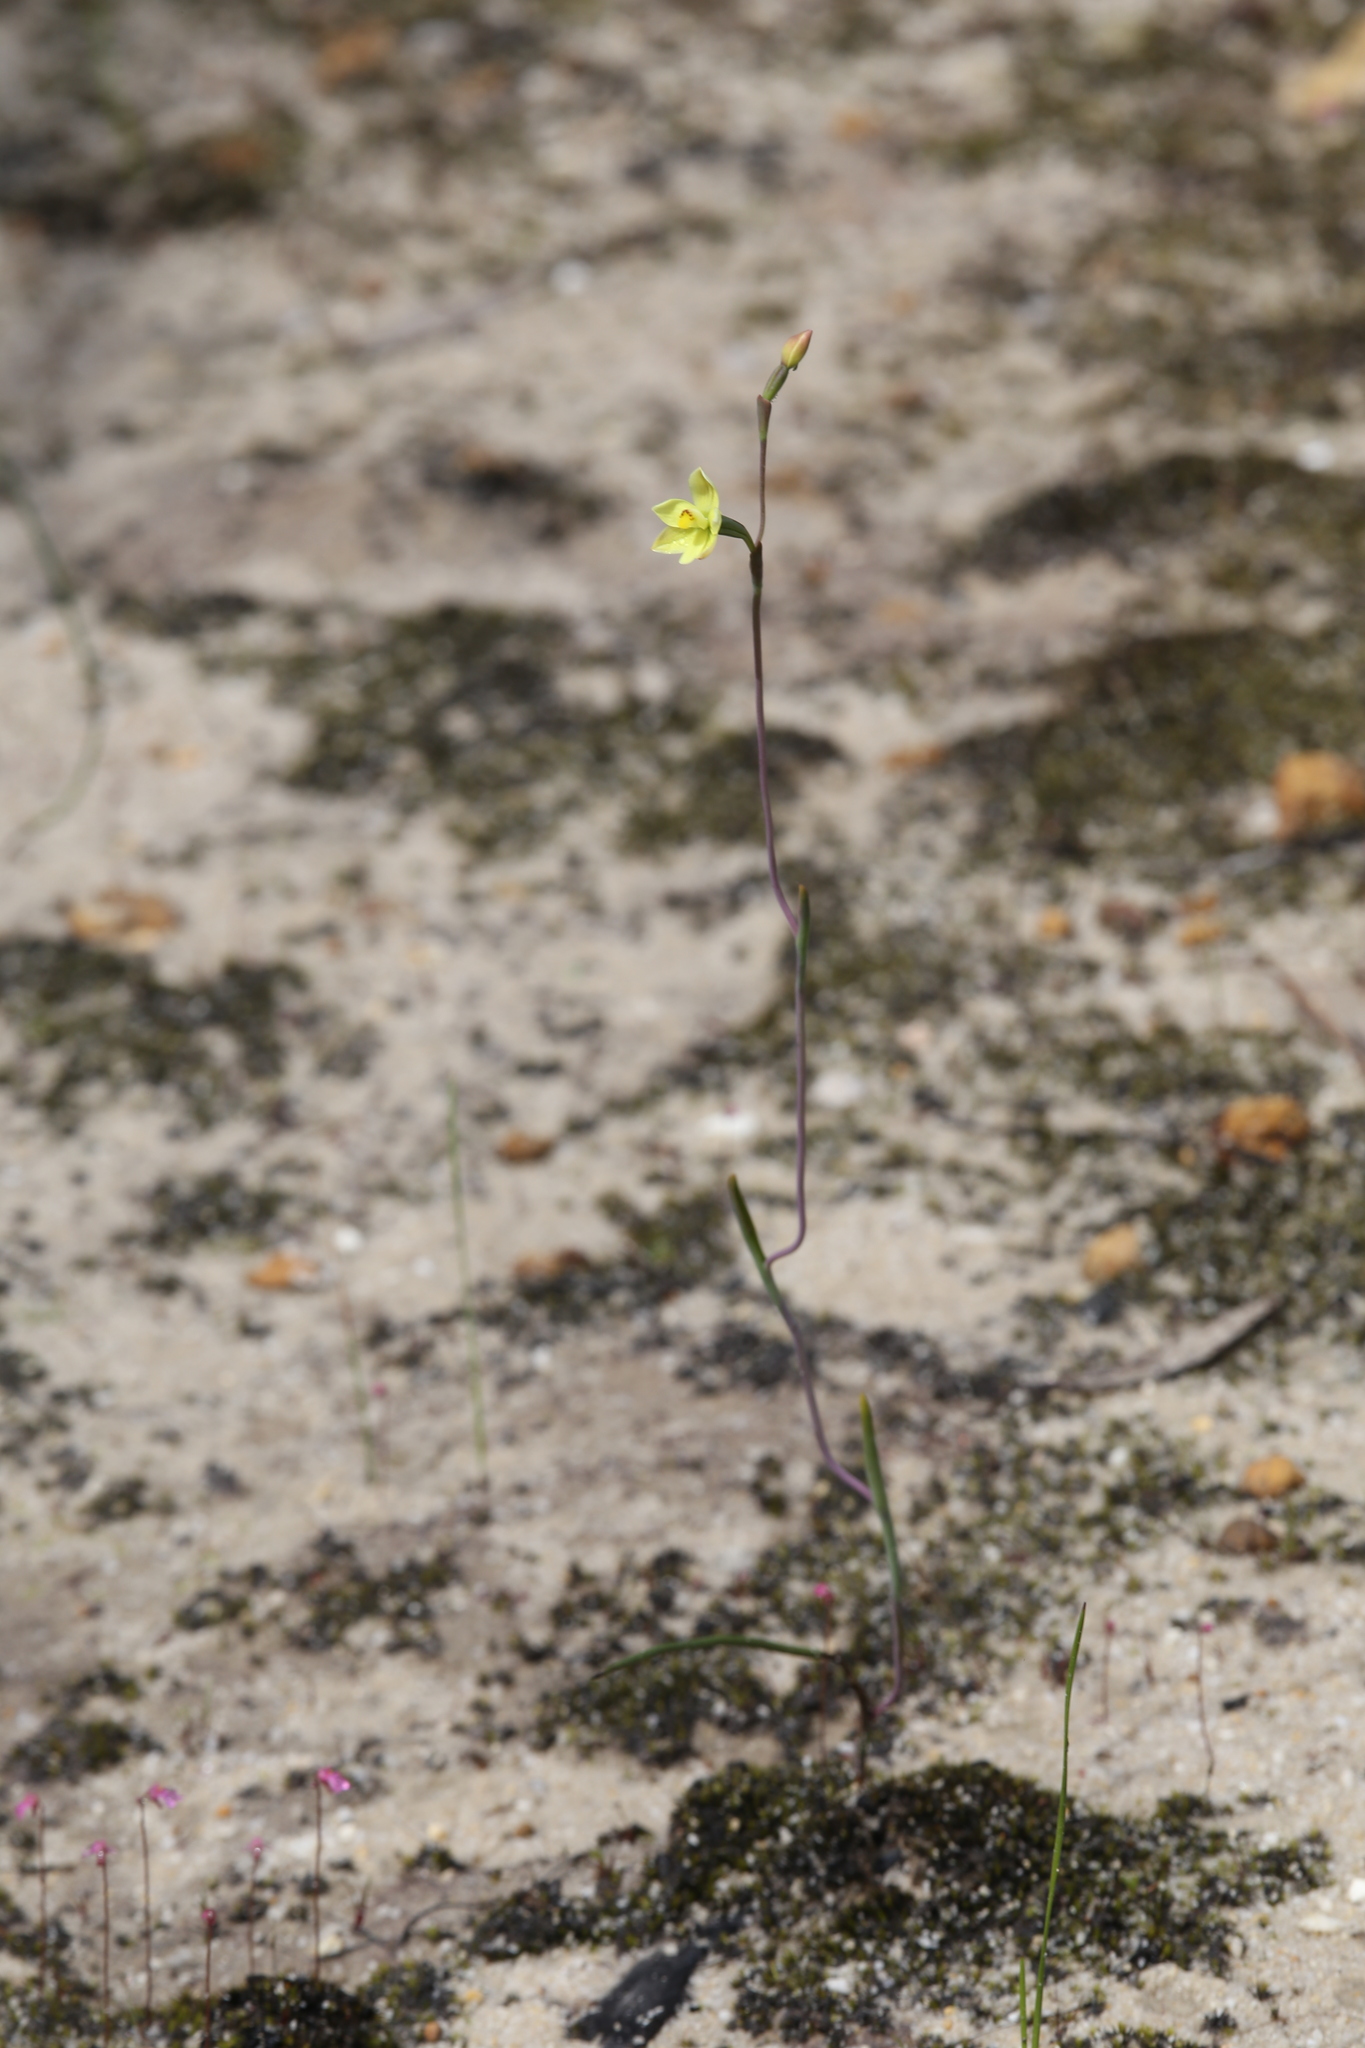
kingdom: Plantae
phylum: Tracheophyta
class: Liliopsida
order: Asparagales
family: Orchidaceae
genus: Thelymitra
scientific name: Thelymitra flexuosa
